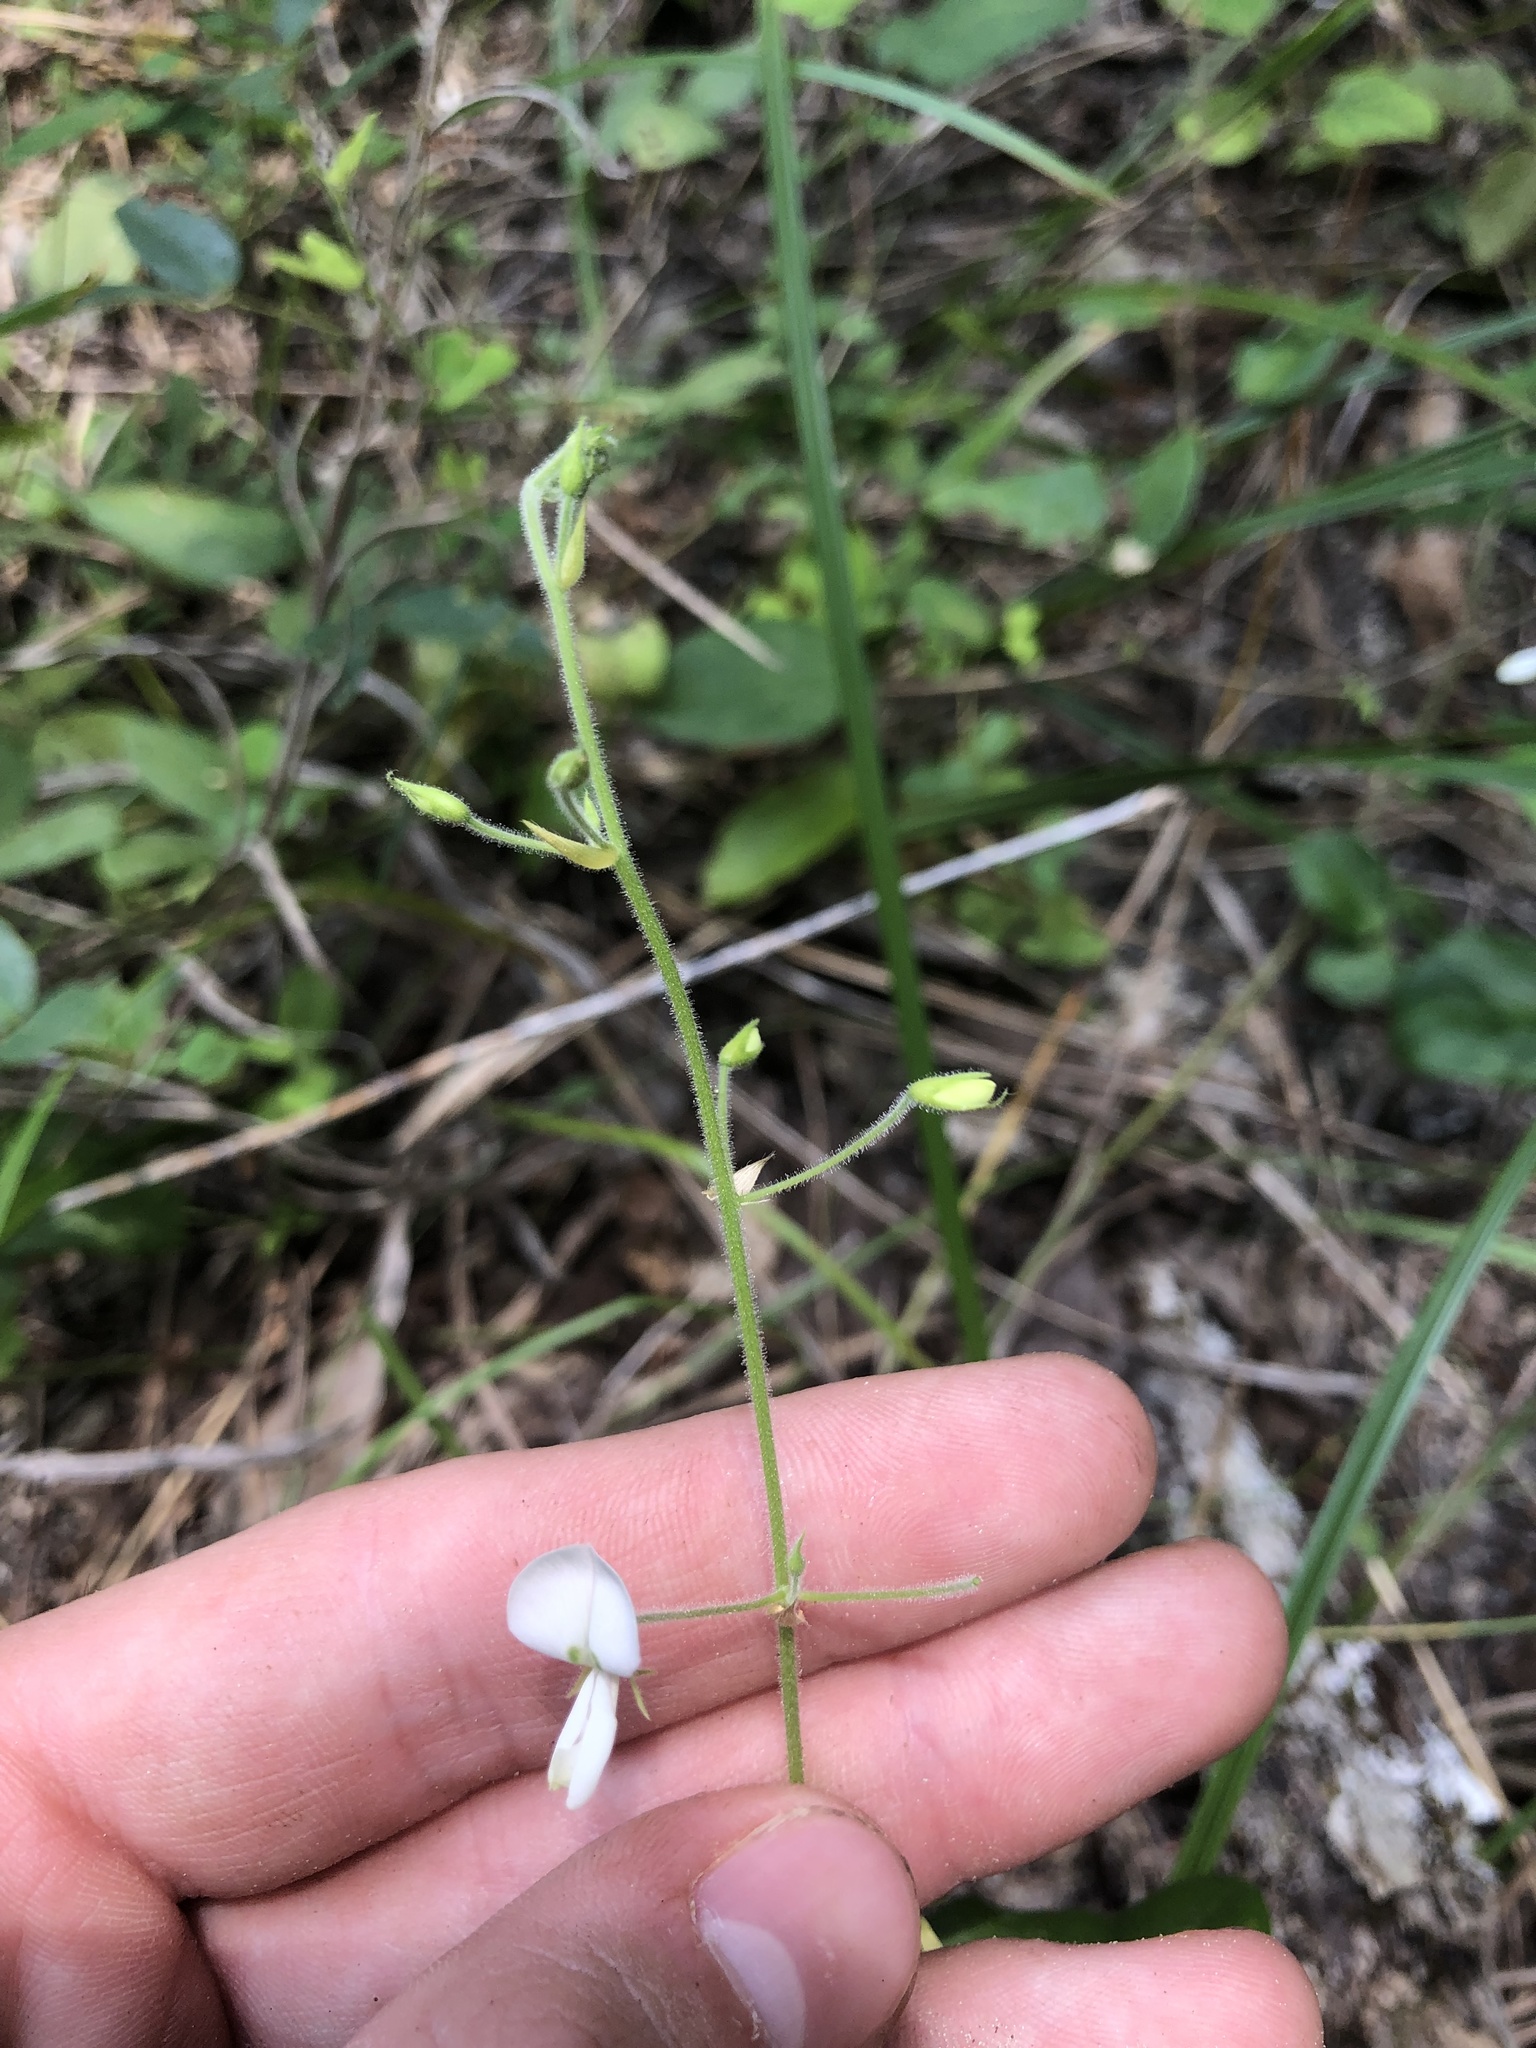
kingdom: Plantae
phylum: Tracheophyta
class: Magnoliopsida
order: Fabales
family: Fabaceae
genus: Desmodium
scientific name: Desmodium ochroleucum
